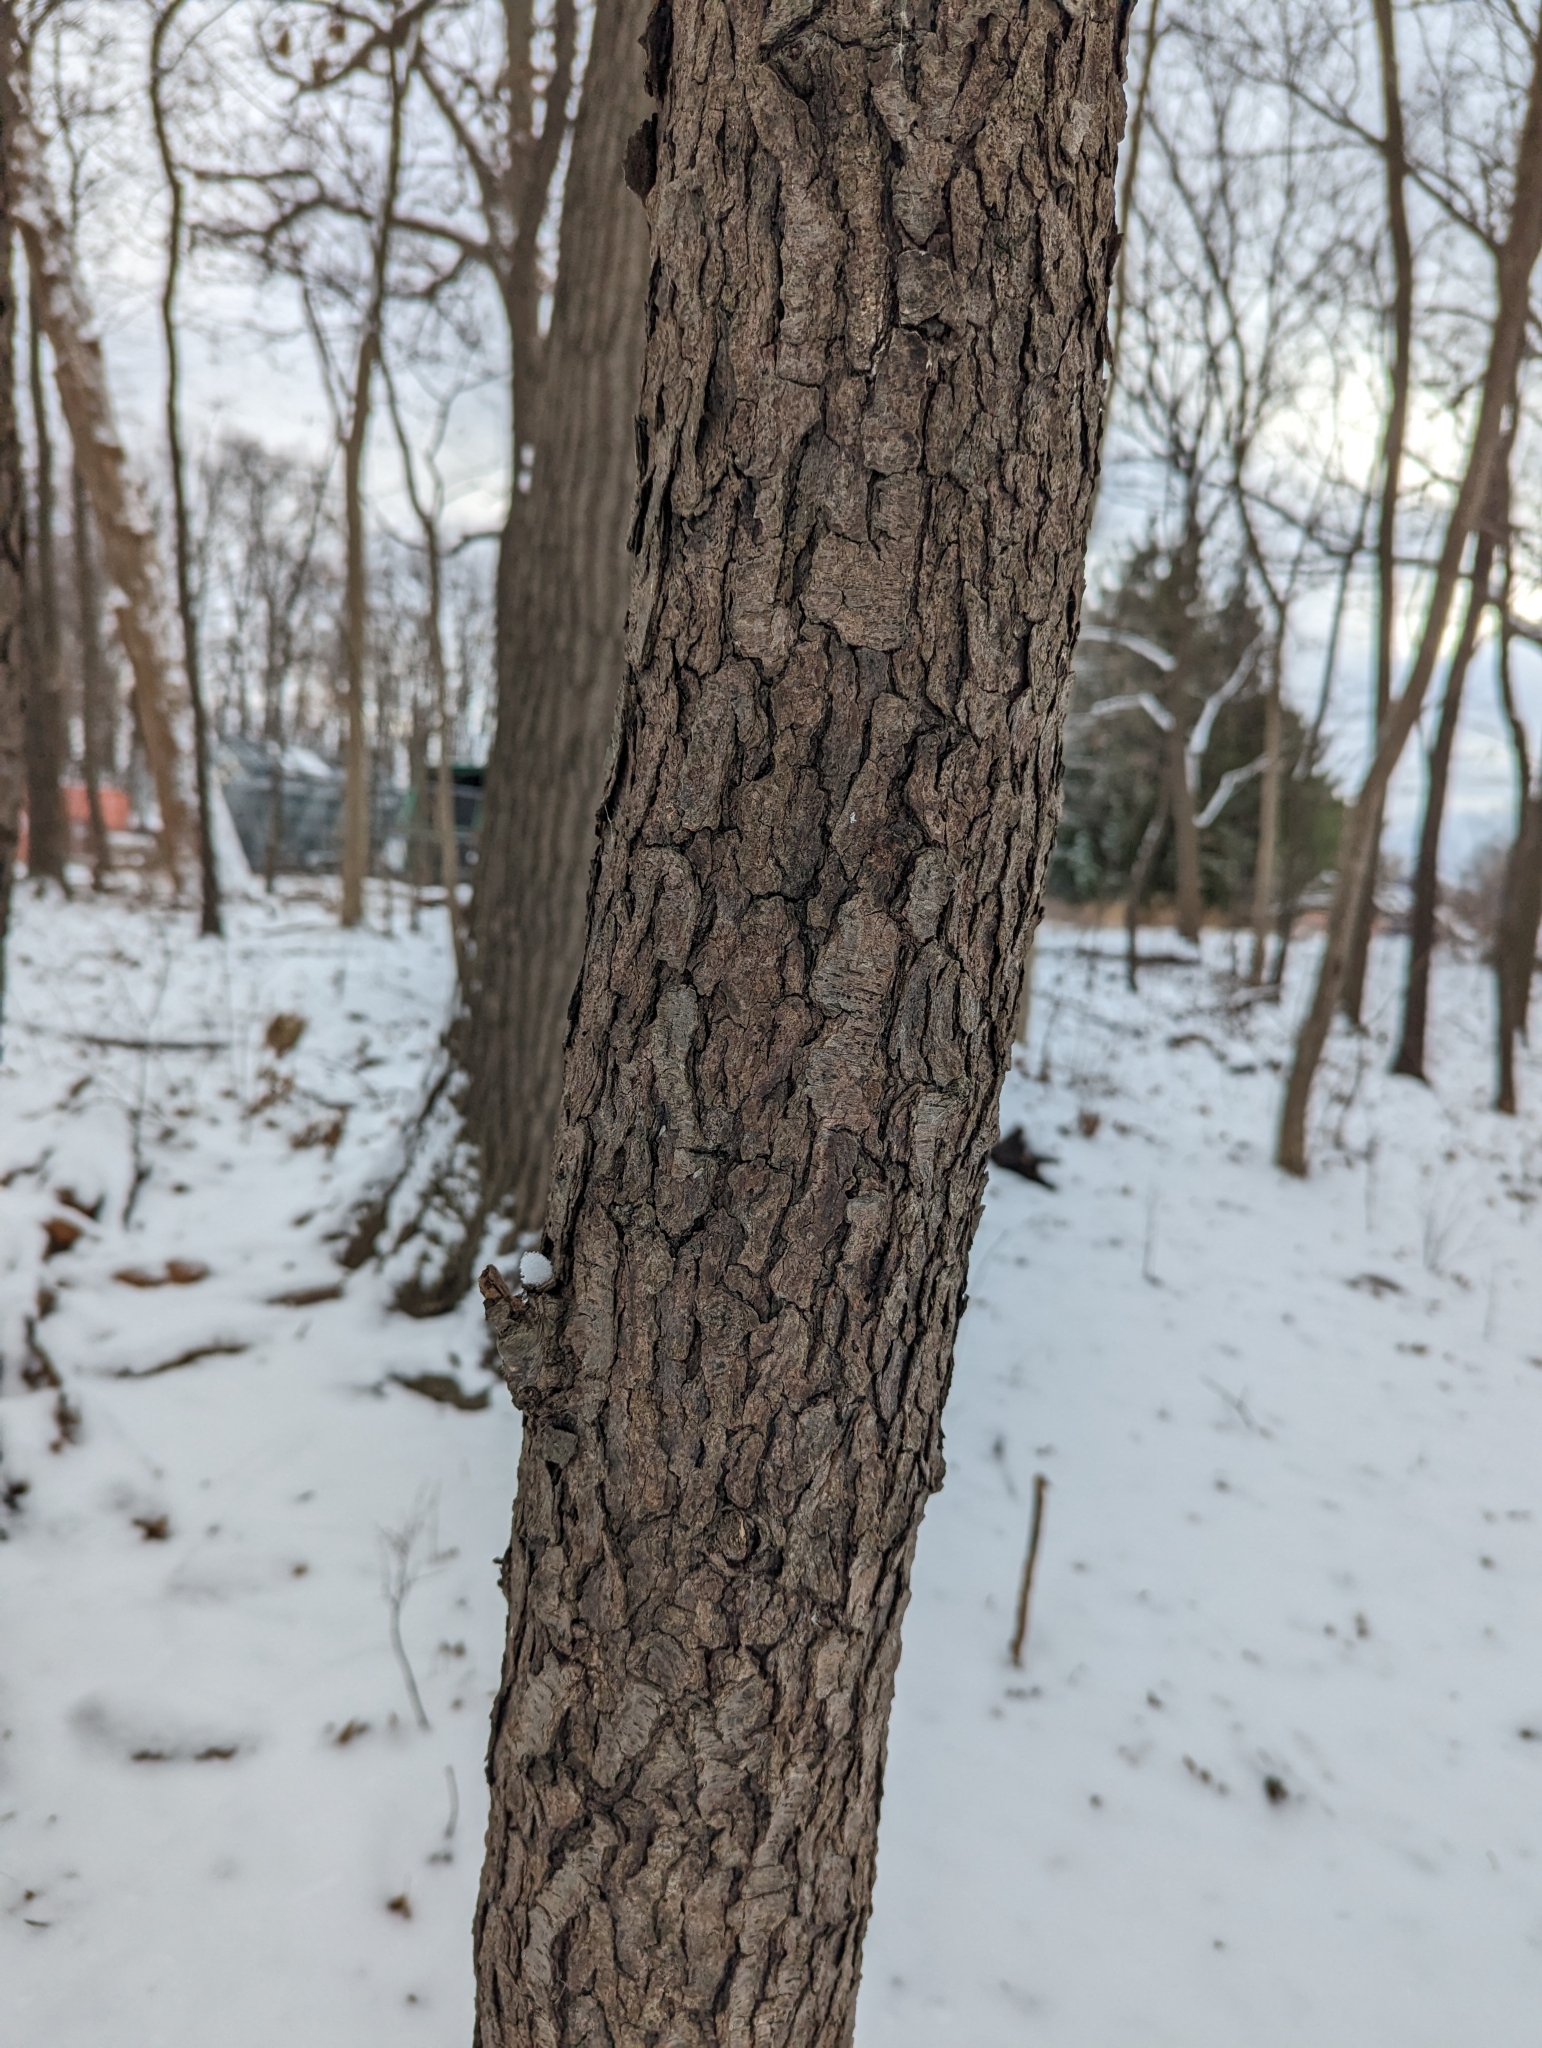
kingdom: Plantae
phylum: Tracheophyta
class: Magnoliopsida
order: Rosales
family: Rosaceae
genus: Prunus
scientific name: Prunus serotina
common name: Black cherry
